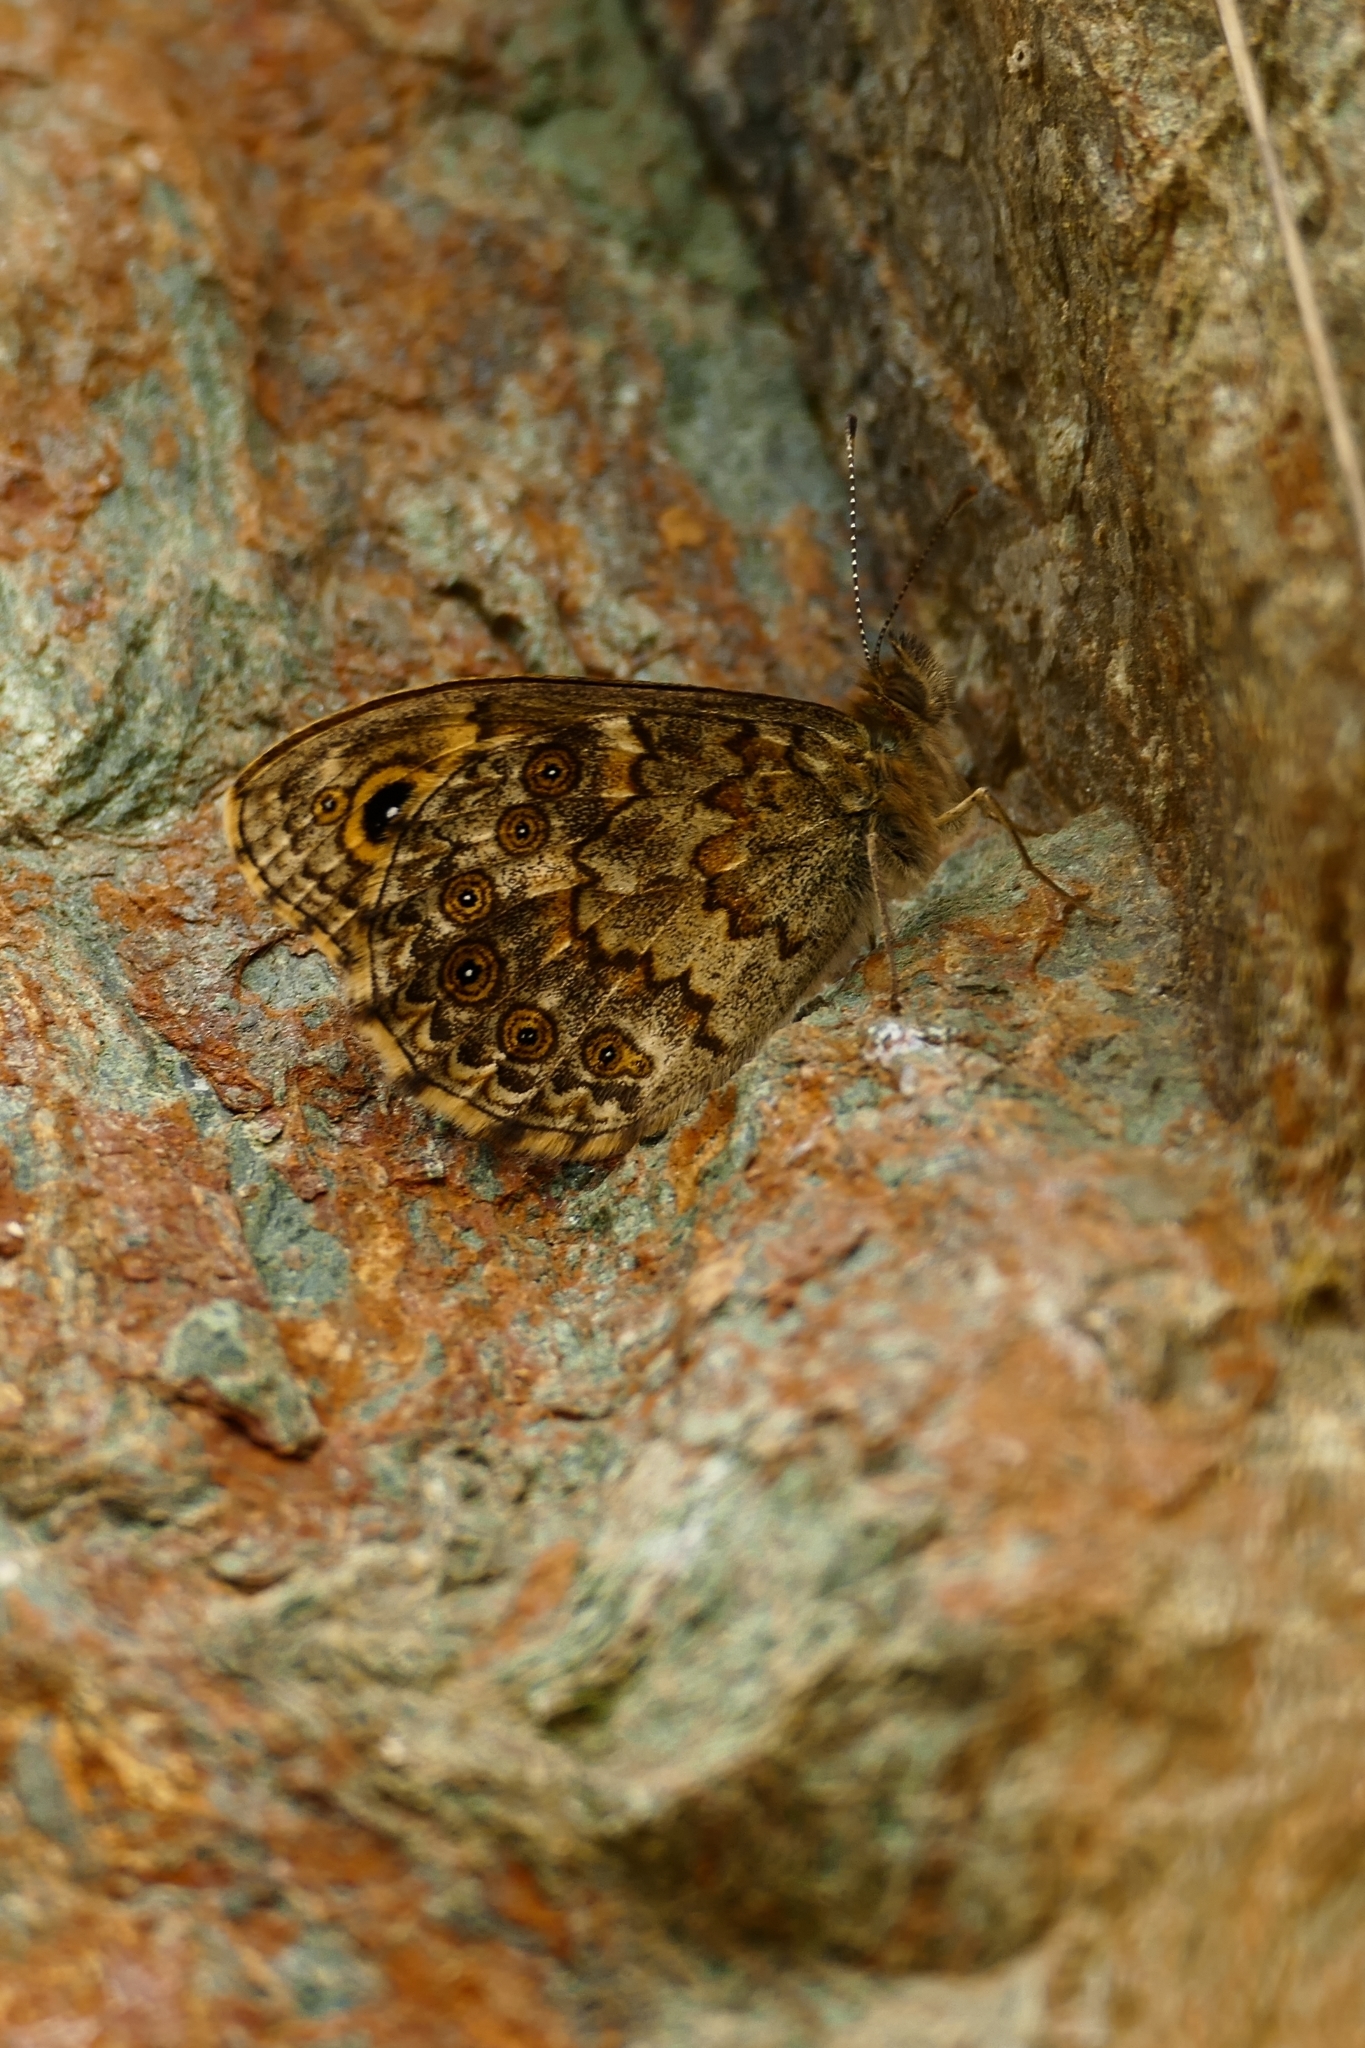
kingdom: Animalia
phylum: Arthropoda
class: Insecta
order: Lepidoptera
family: Nymphalidae
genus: Pararge
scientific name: Pararge Lasiommata megera
